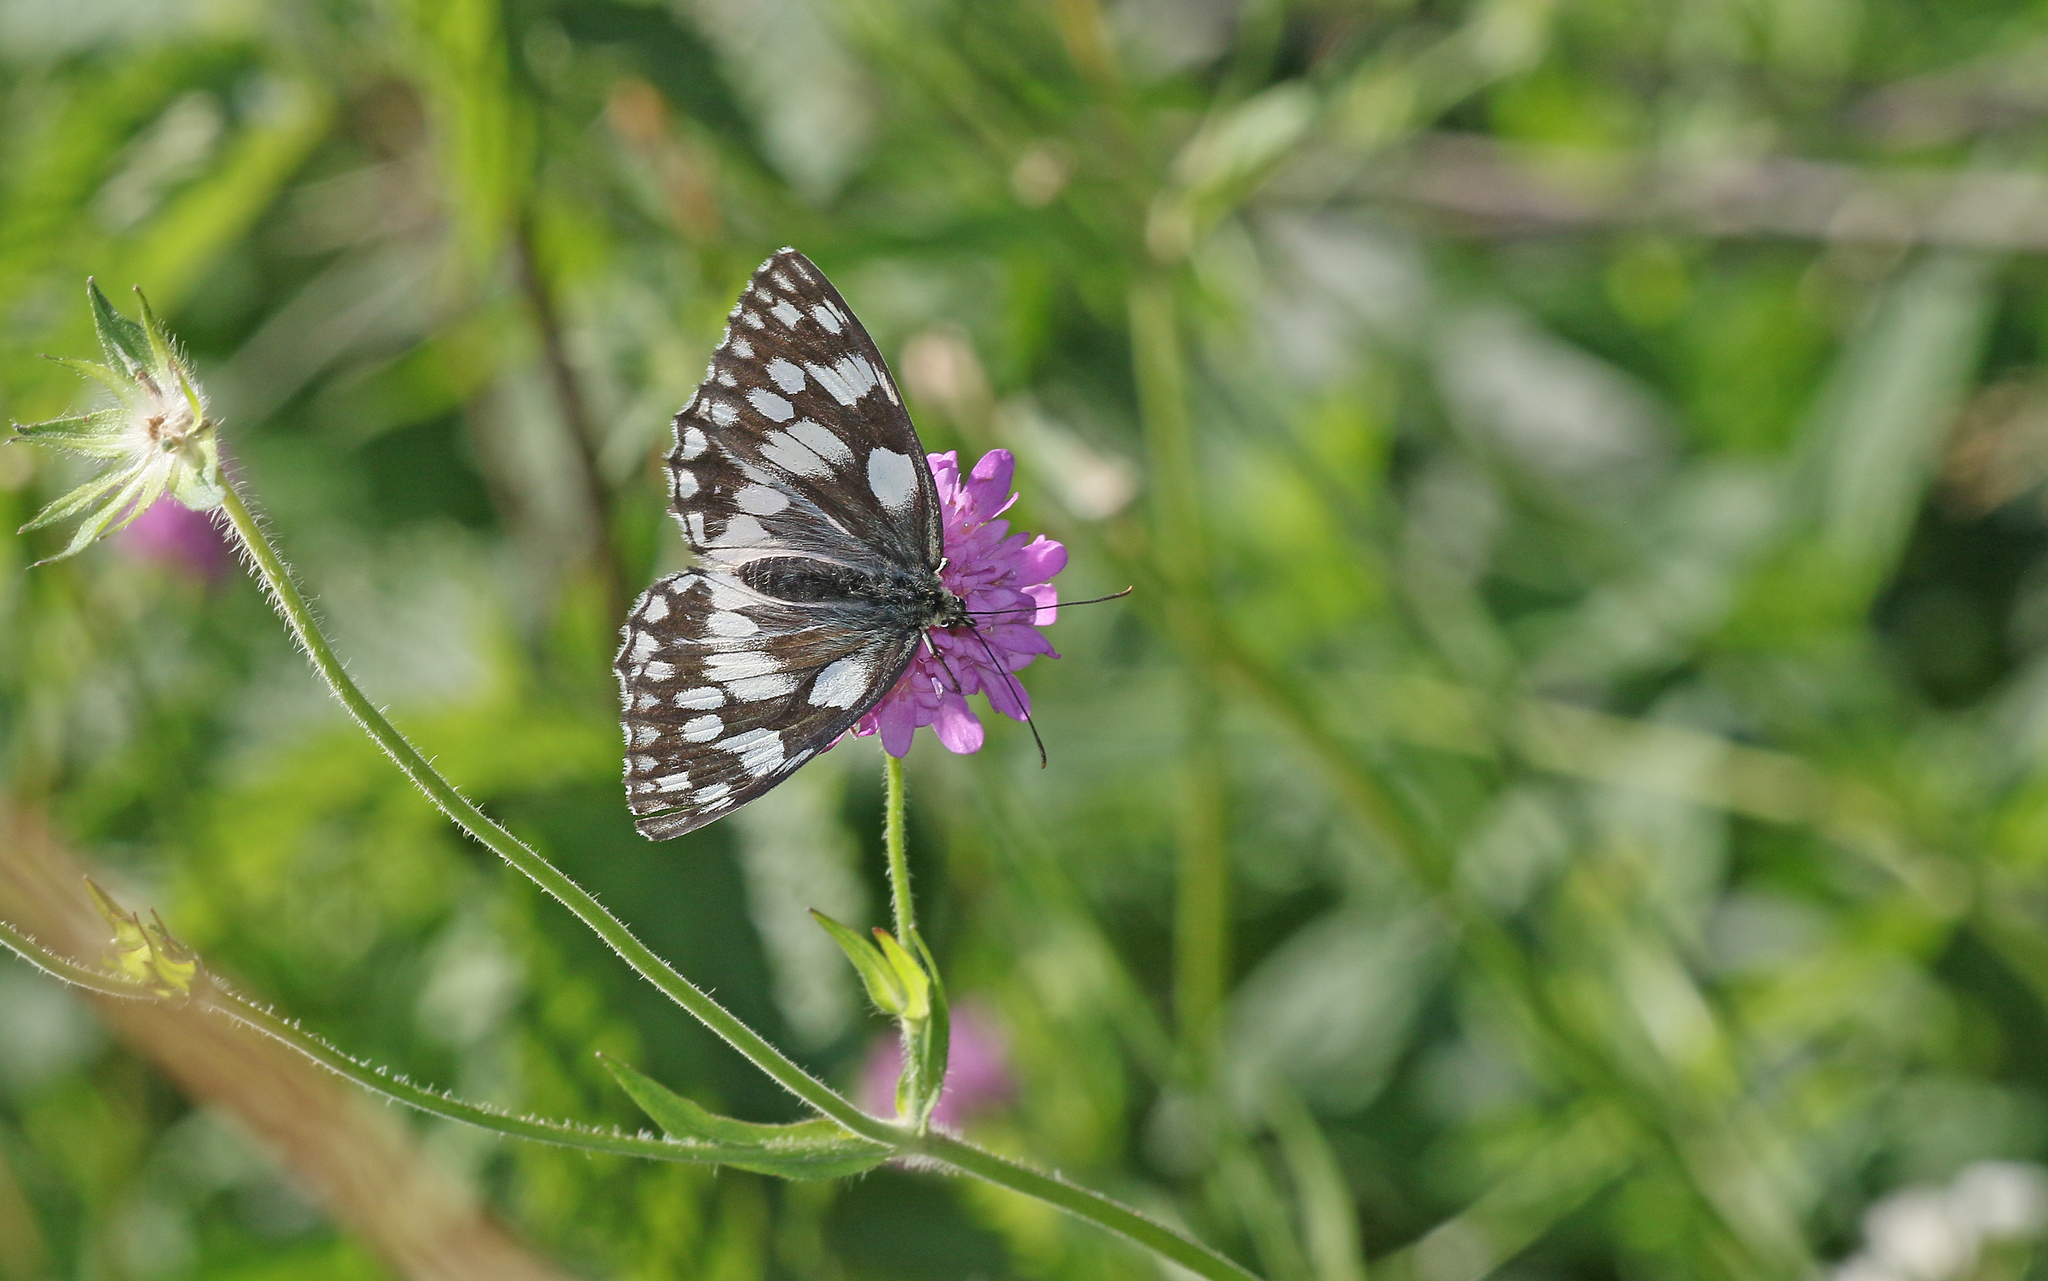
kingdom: Animalia
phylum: Arthropoda
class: Insecta
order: Lepidoptera
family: Nymphalidae
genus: Melanargia
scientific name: Melanargia galathea
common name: Marbled white
